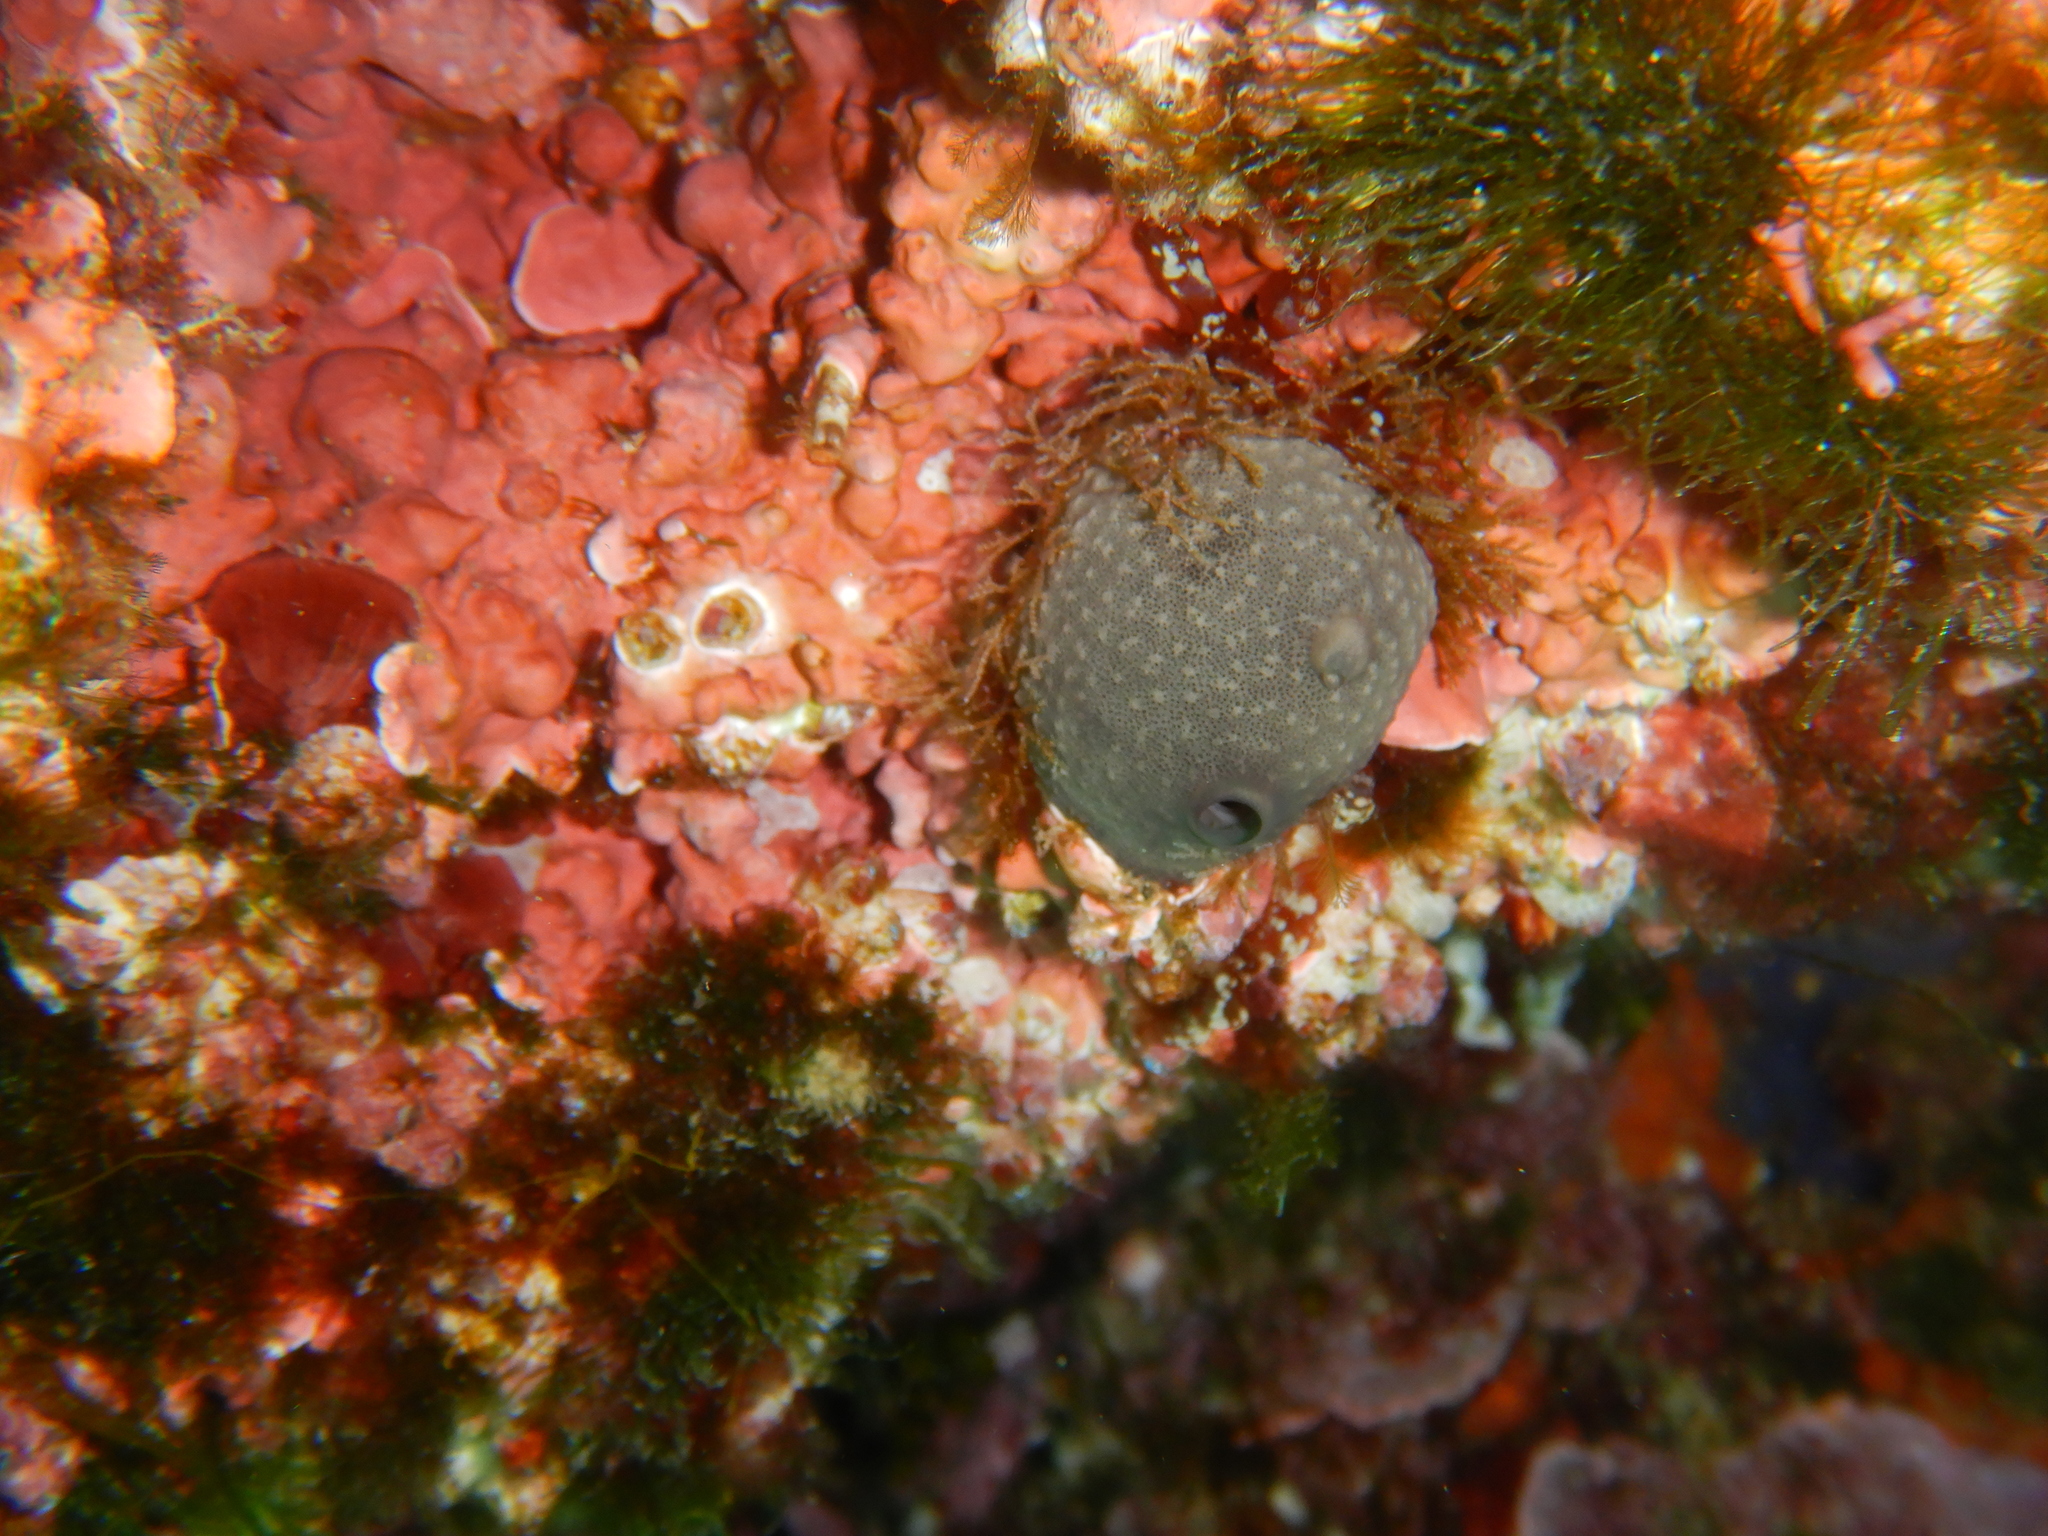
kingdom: Animalia
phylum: Porifera
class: Demospongiae
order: Dictyoceratida
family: Irciniidae
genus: Ircinia
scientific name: Ircinia oros
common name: Grey leather sponge
